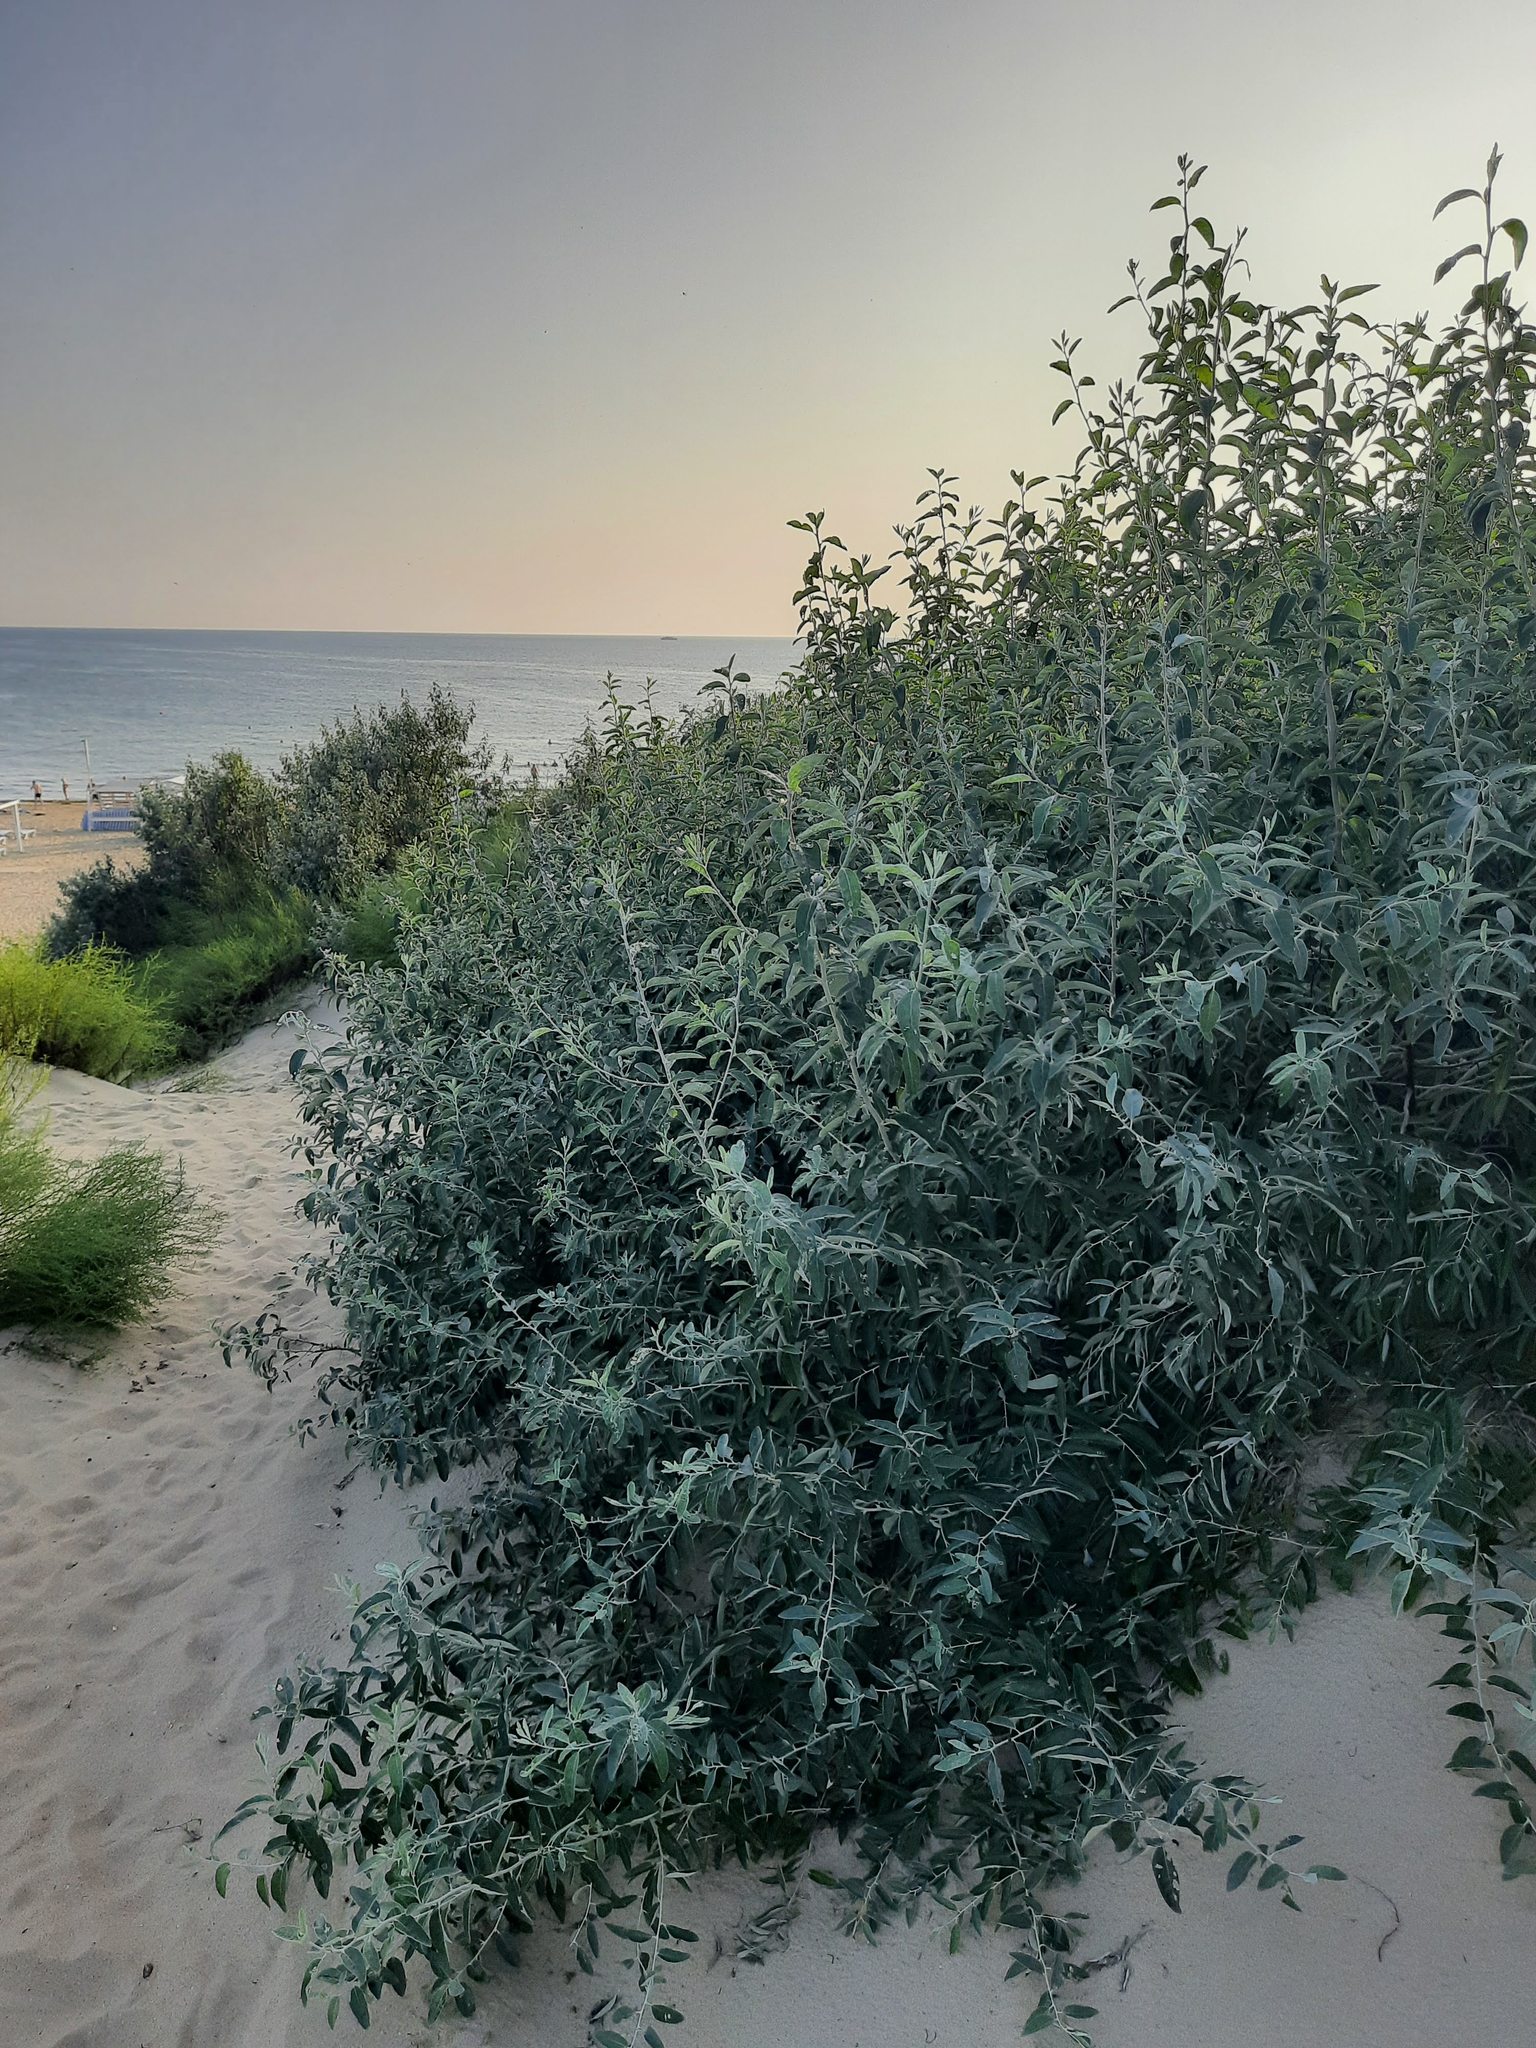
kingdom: Plantae
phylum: Tracheophyta
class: Magnoliopsida
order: Rosales
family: Elaeagnaceae
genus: Elaeagnus
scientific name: Elaeagnus angustifolia
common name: Russian olive
